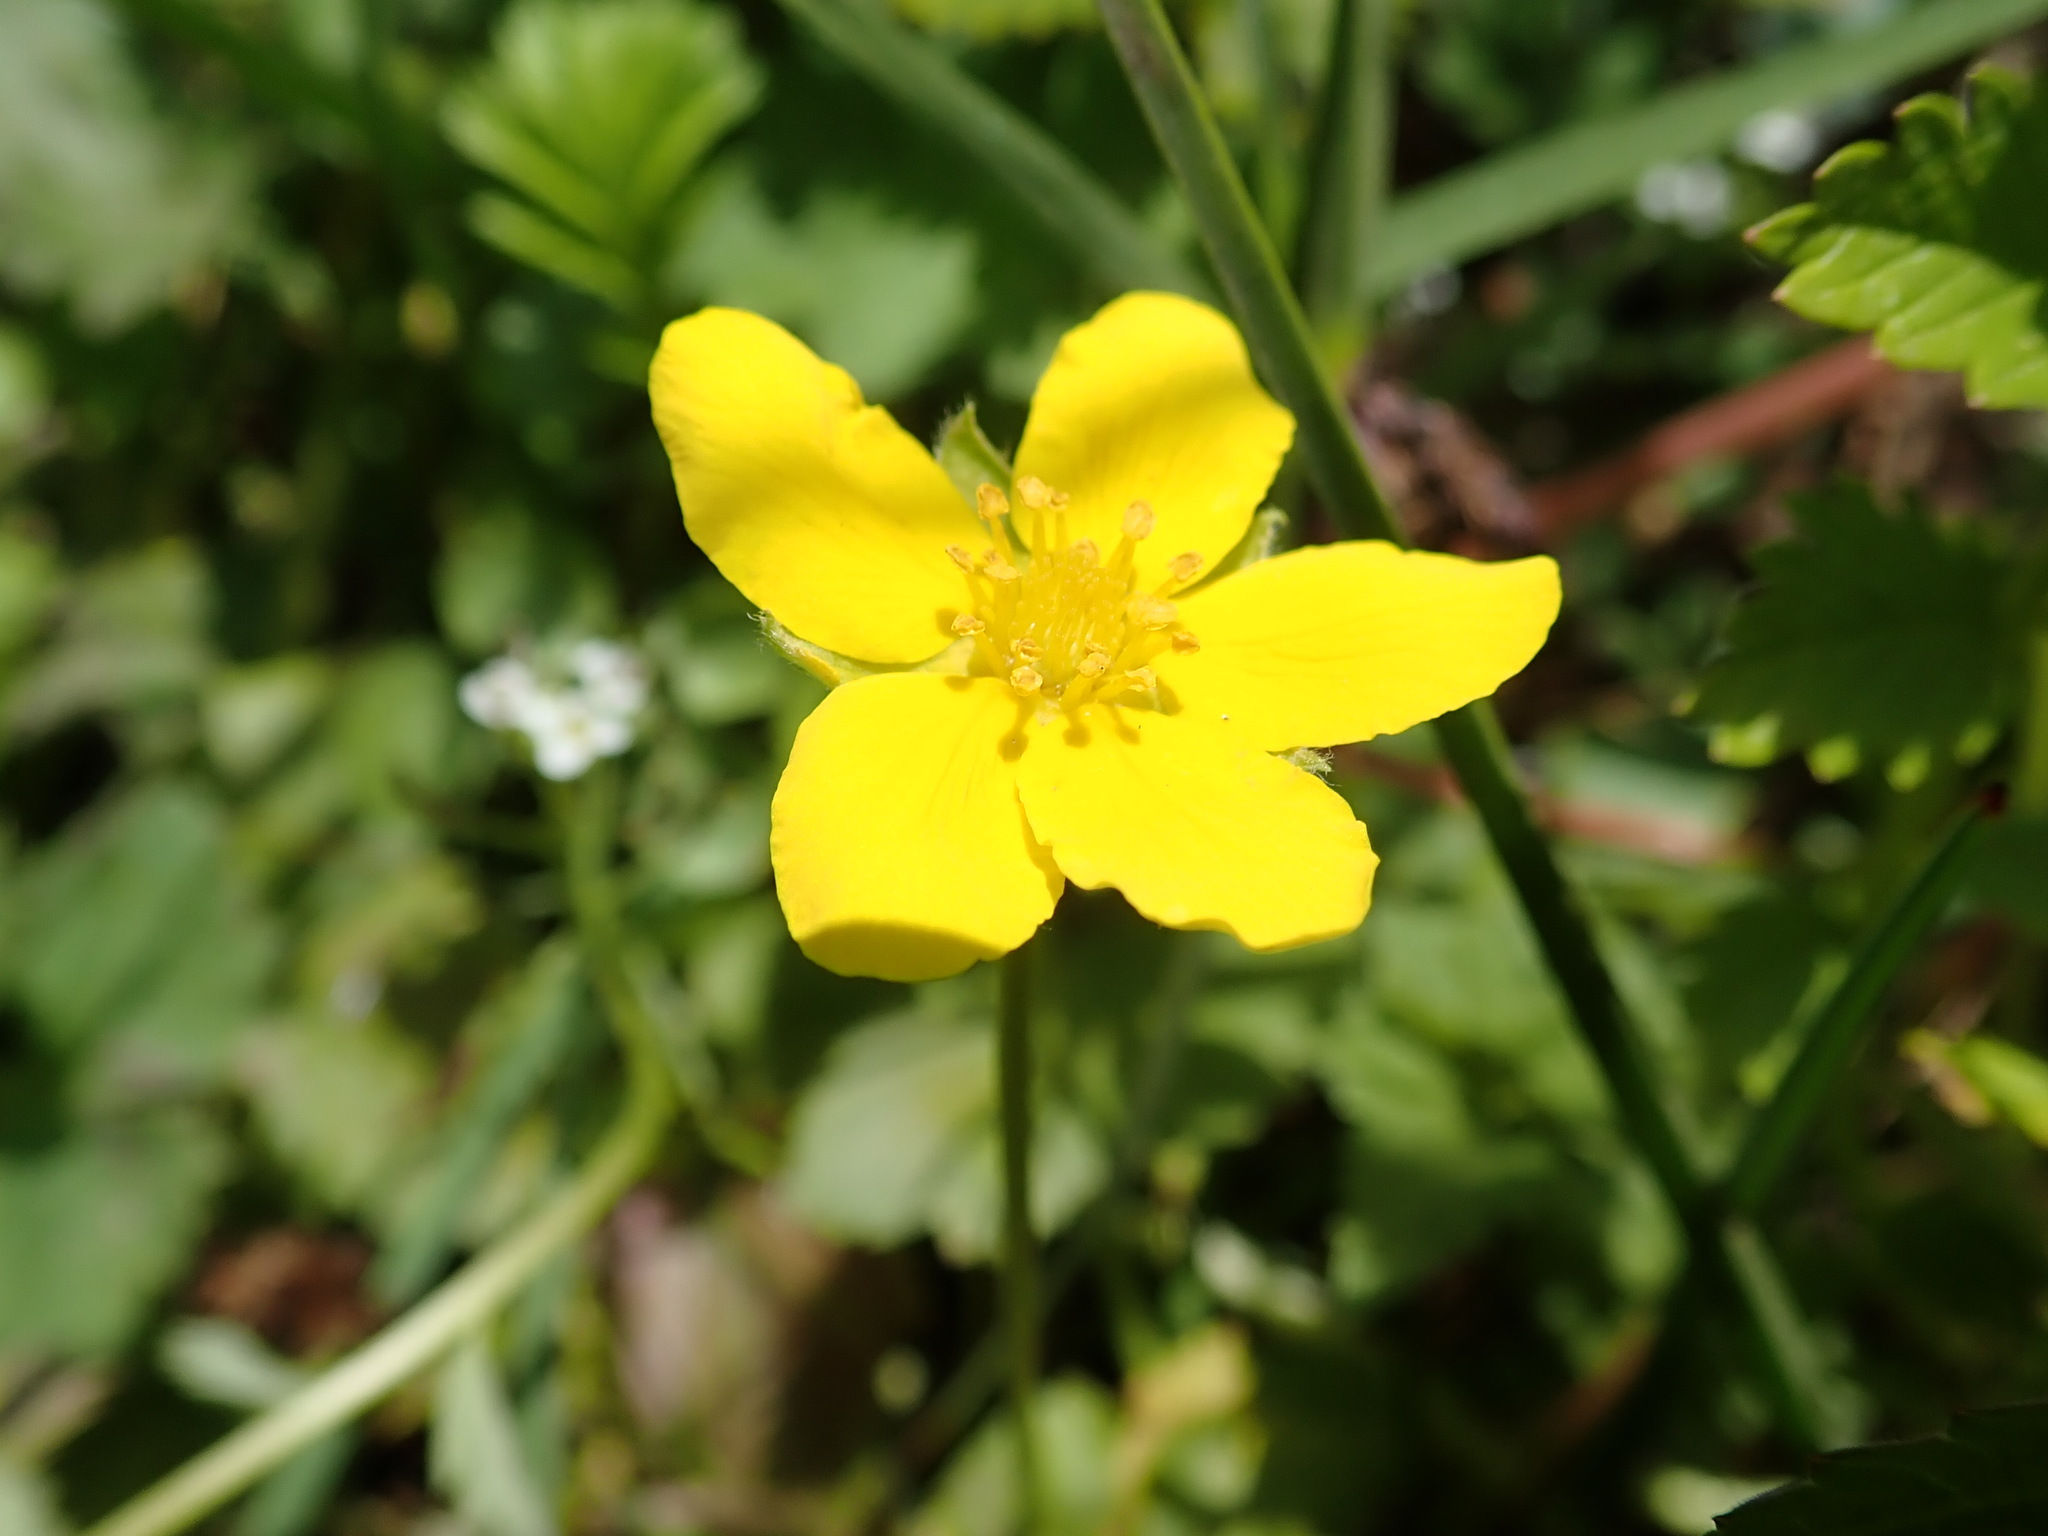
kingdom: Plantae
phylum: Tracheophyta
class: Magnoliopsida
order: Rosales
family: Rosaceae
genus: Argentina
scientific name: Argentina anserina
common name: Common silverweed
